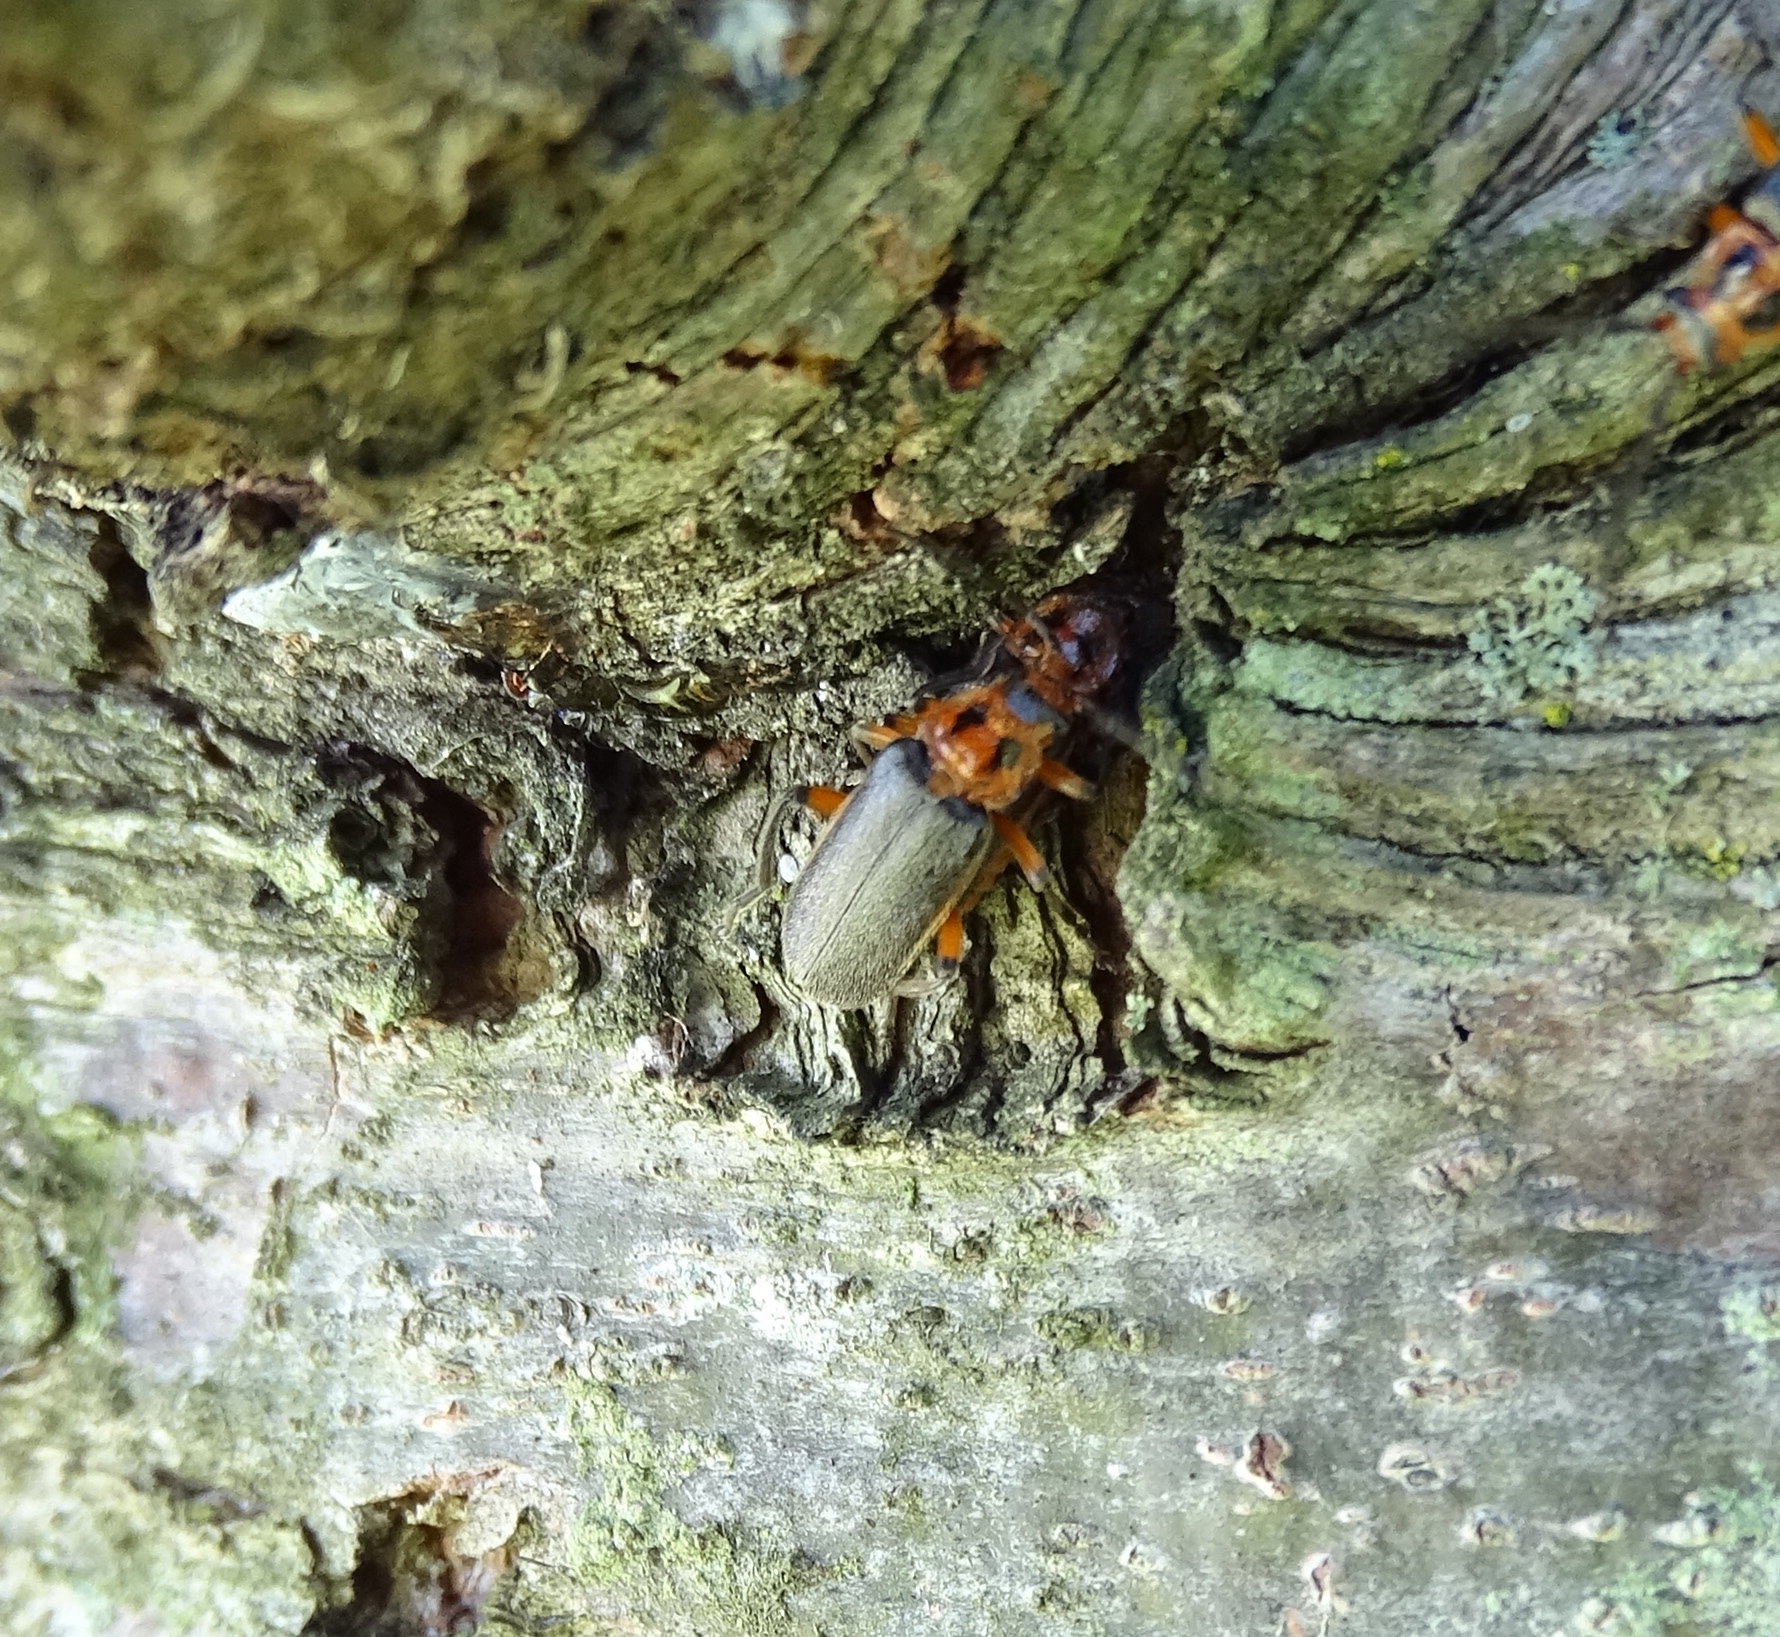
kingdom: Animalia
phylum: Arthropoda
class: Insecta
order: Coleoptera
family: Cantharidae
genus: Atalantycha
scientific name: Atalantycha bilineata
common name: Two-lined leatherwing
